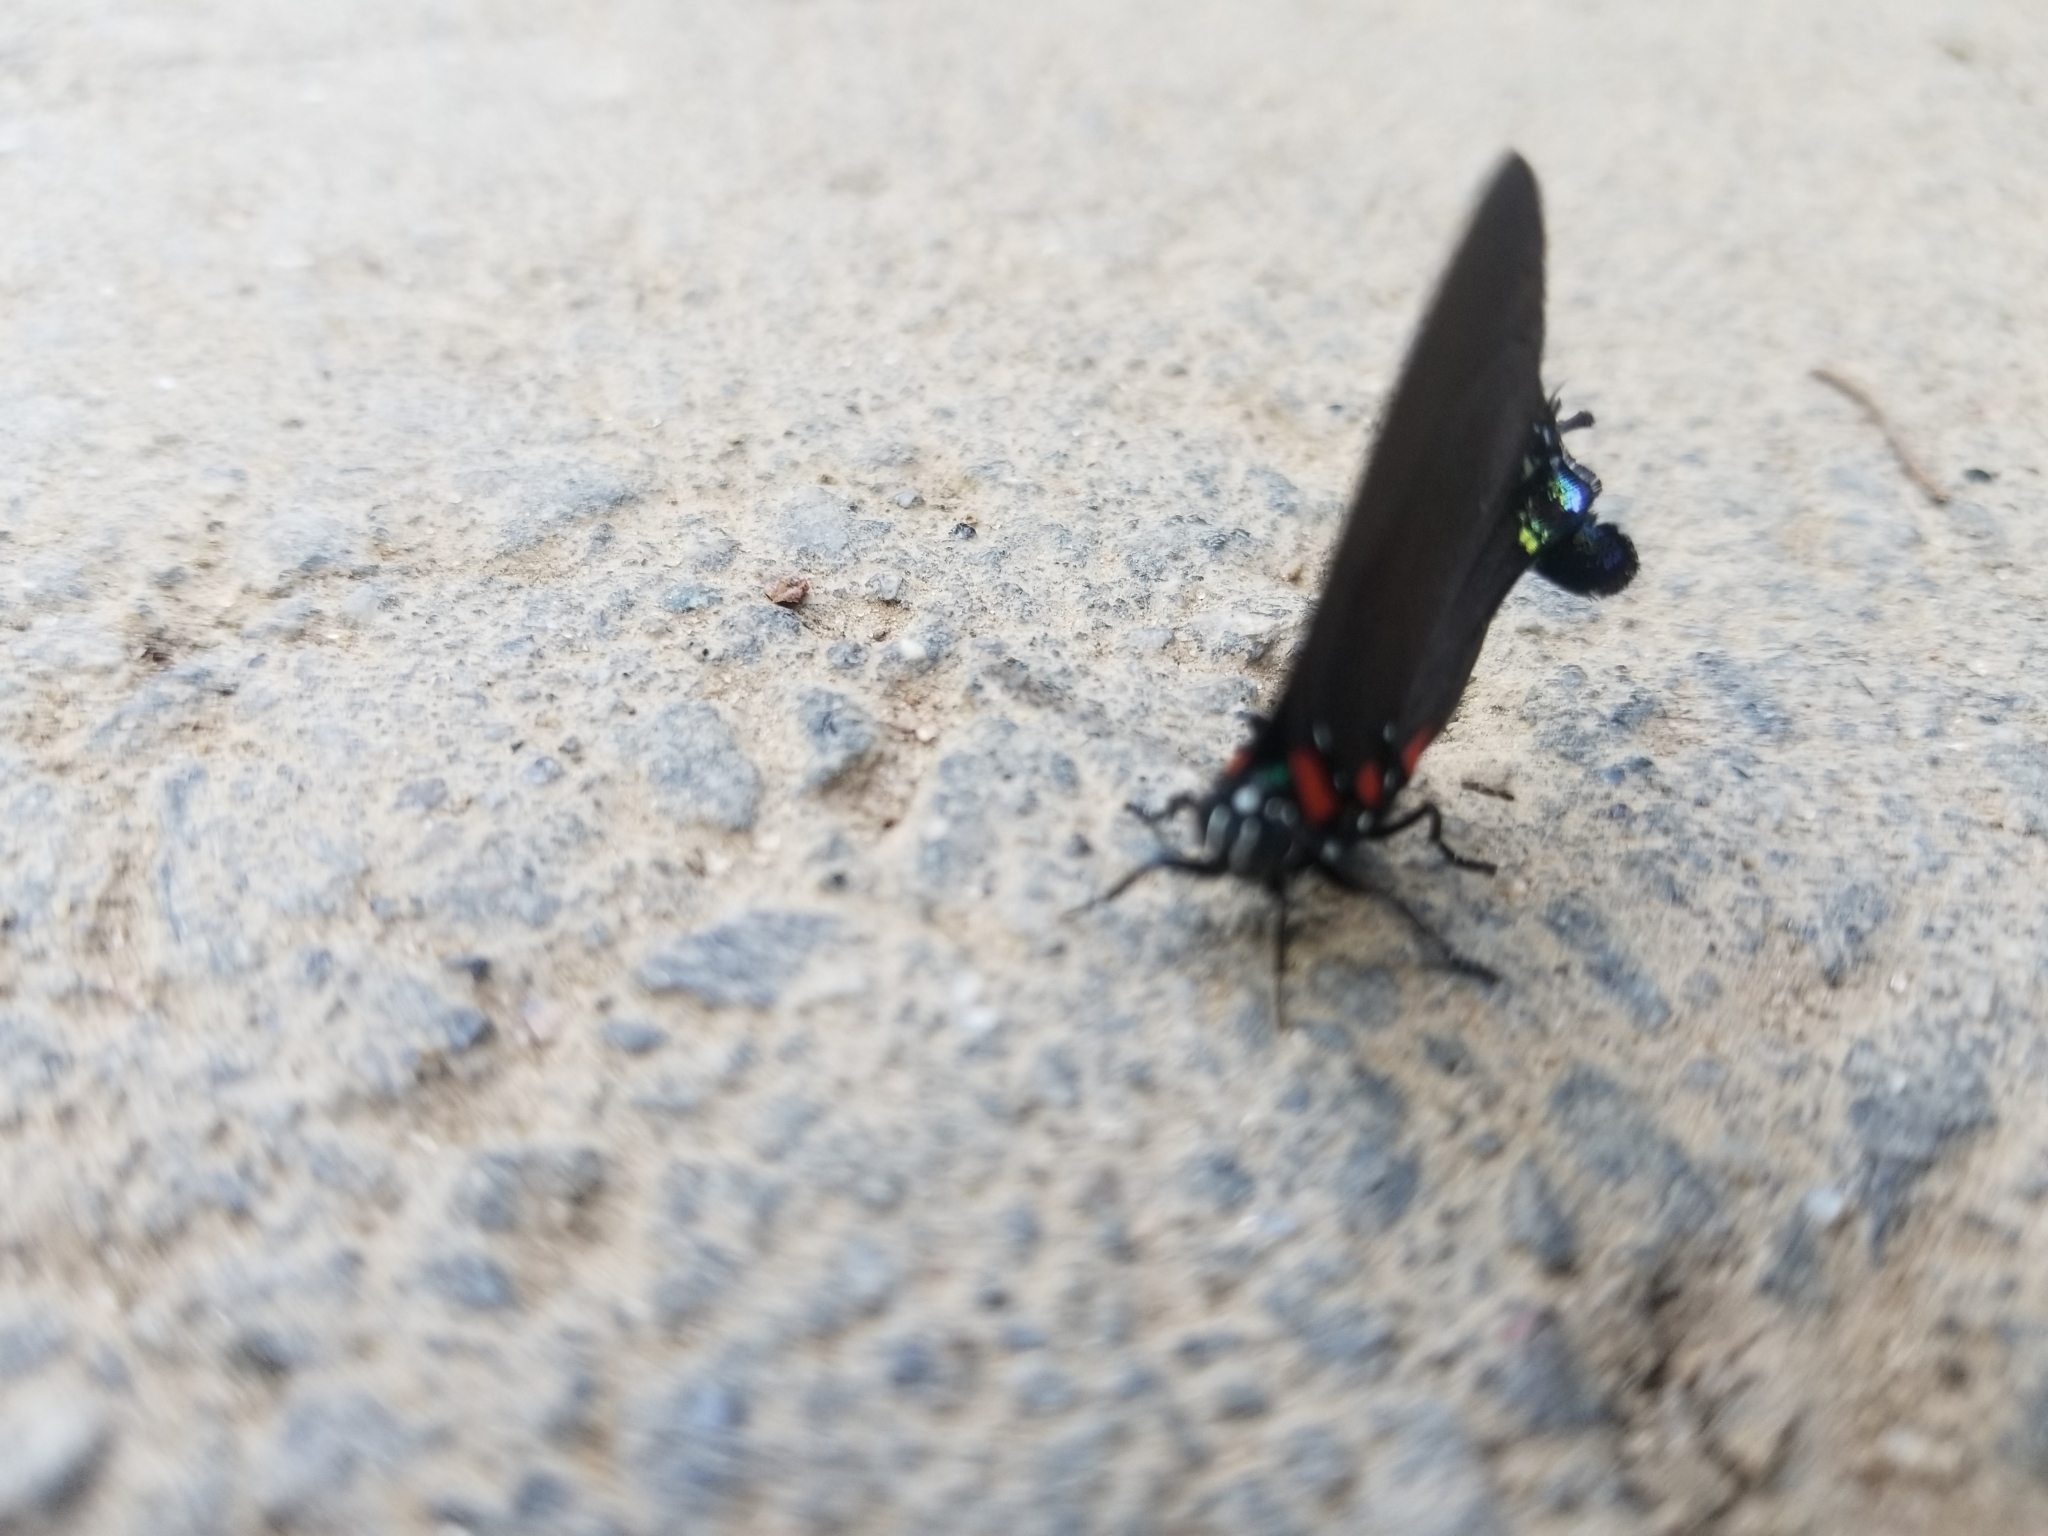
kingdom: Animalia
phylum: Arthropoda
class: Insecta
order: Lepidoptera
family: Lycaenidae
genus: Atlides
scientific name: Atlides halesus
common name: Great purple hairstreak
